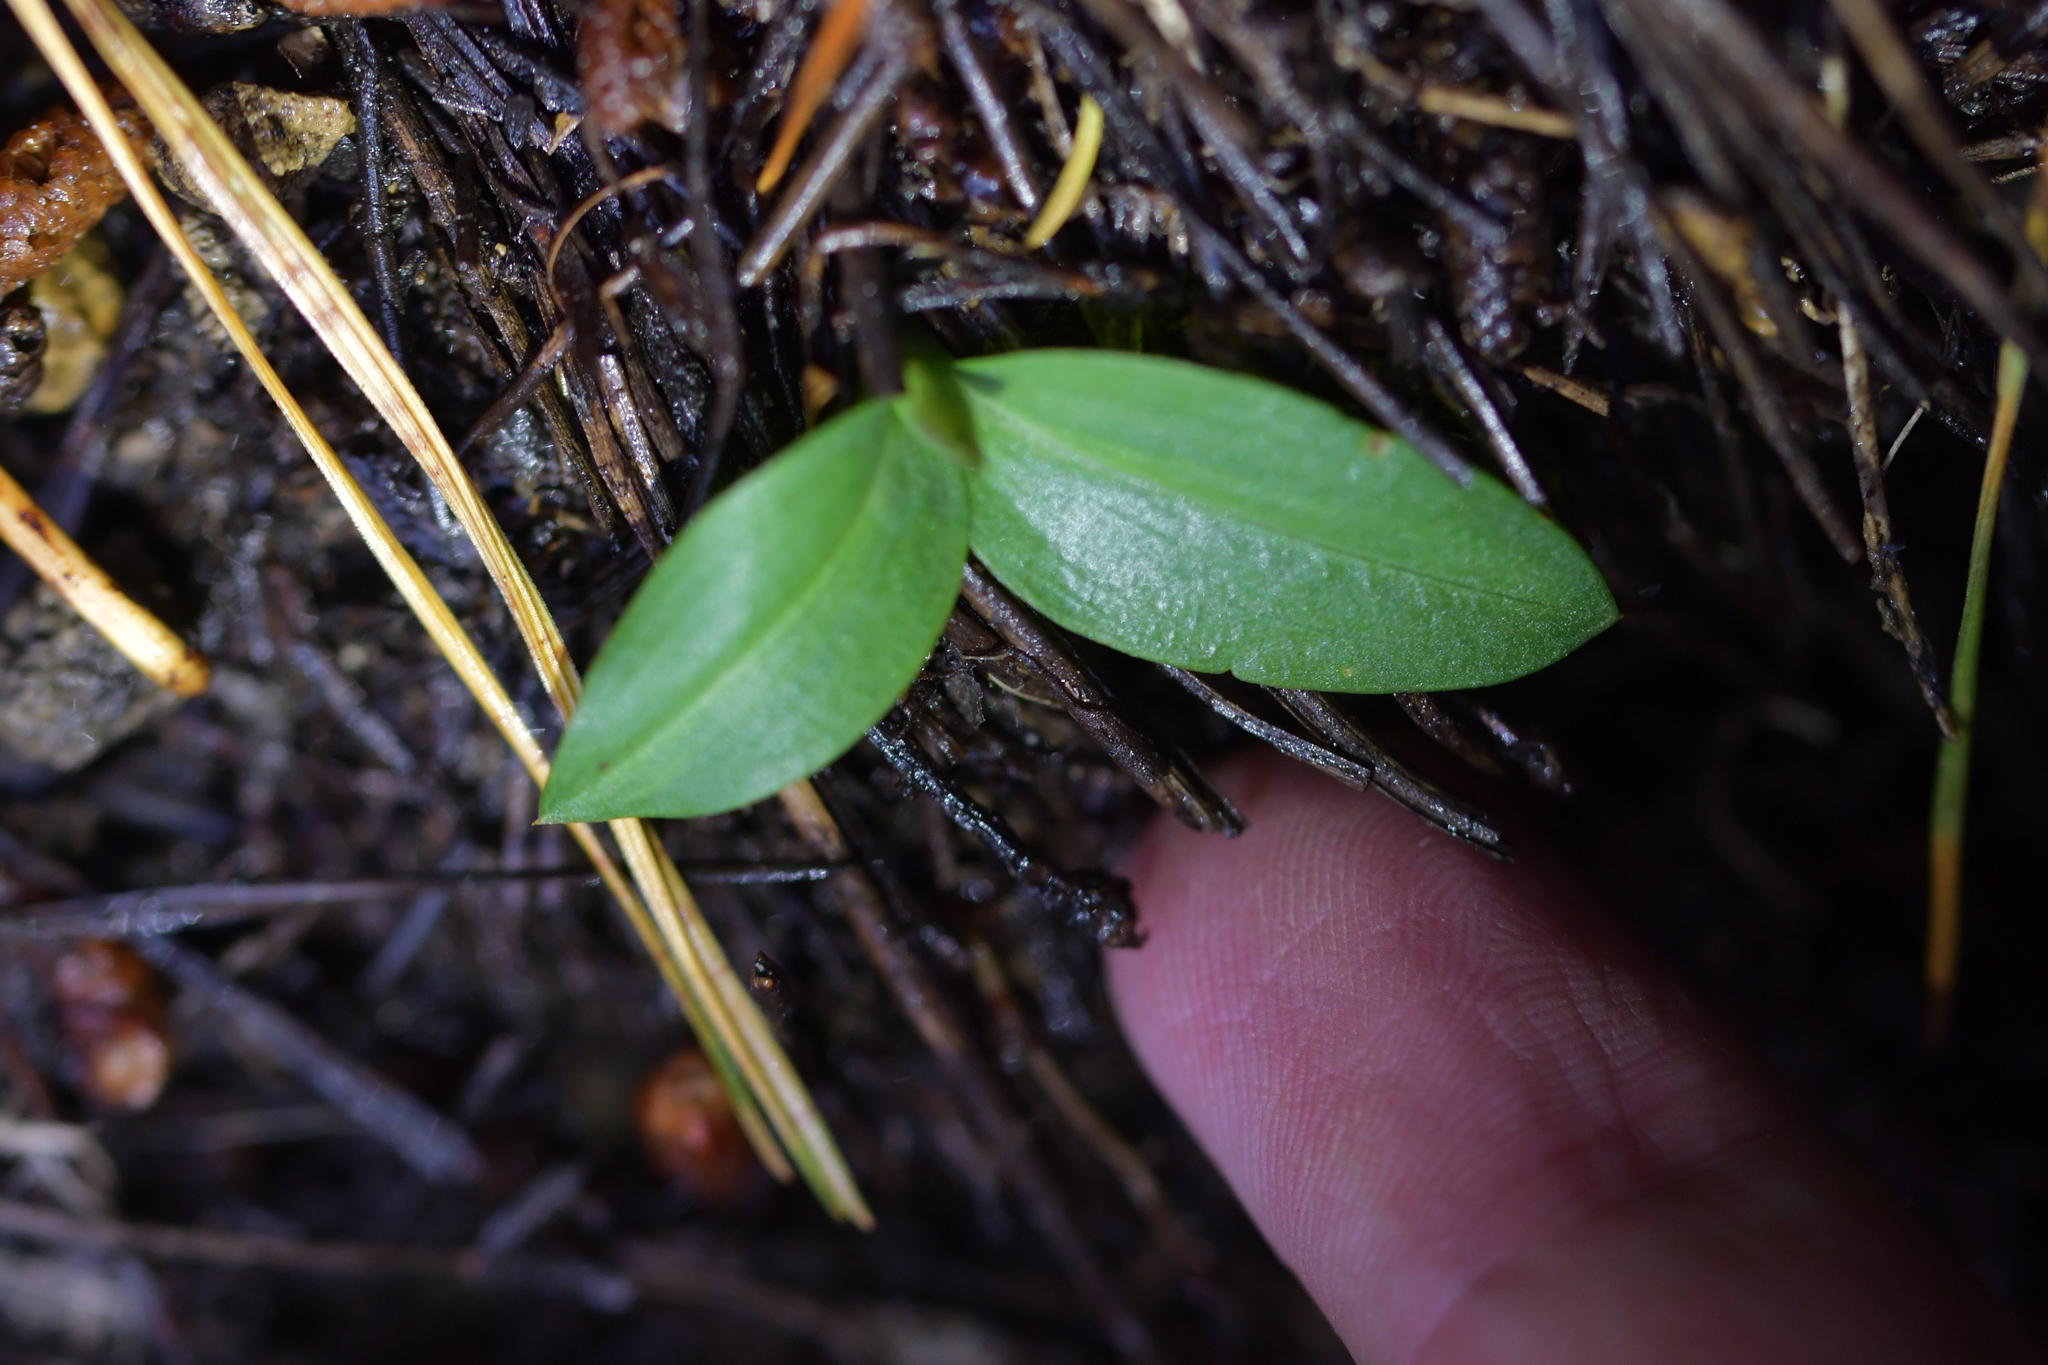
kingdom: Plantae
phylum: Tracheophyta
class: Liliopsida
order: Asparagales
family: Orchidaceae
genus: Chiloglottis
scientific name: Chiloglottis cornuta
